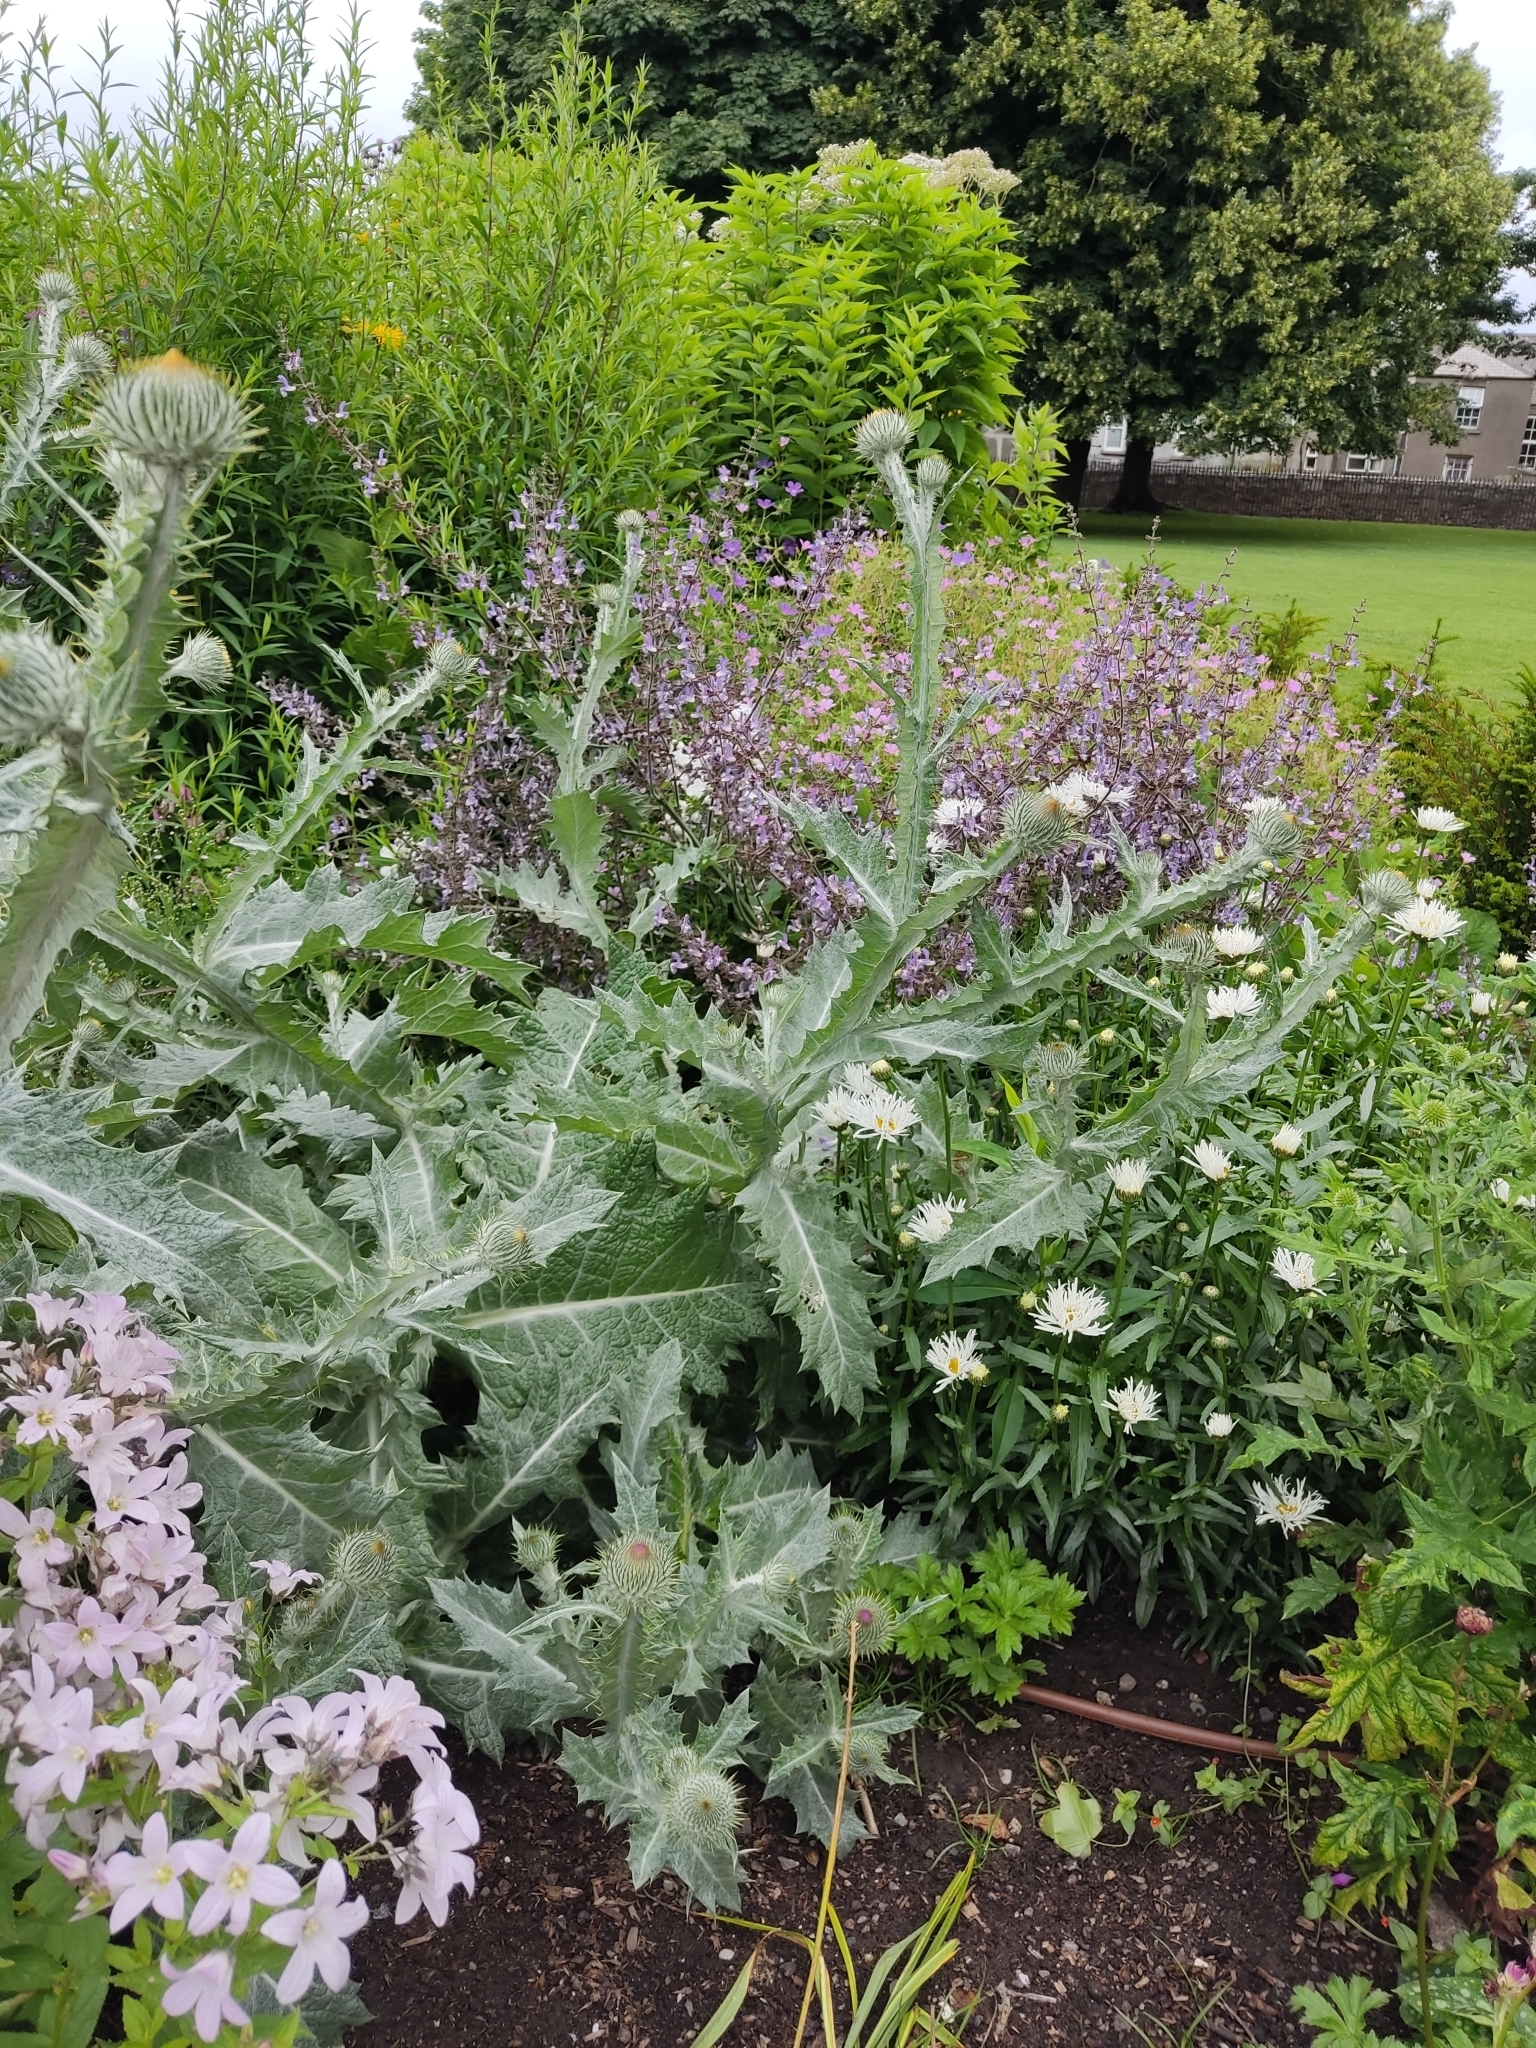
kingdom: Plantae
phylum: Tracheophyta
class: Magnoliopsida
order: Asterales
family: Asteraceae
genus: Onopordum
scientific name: Onopordum acanthium
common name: Scotch thistle
